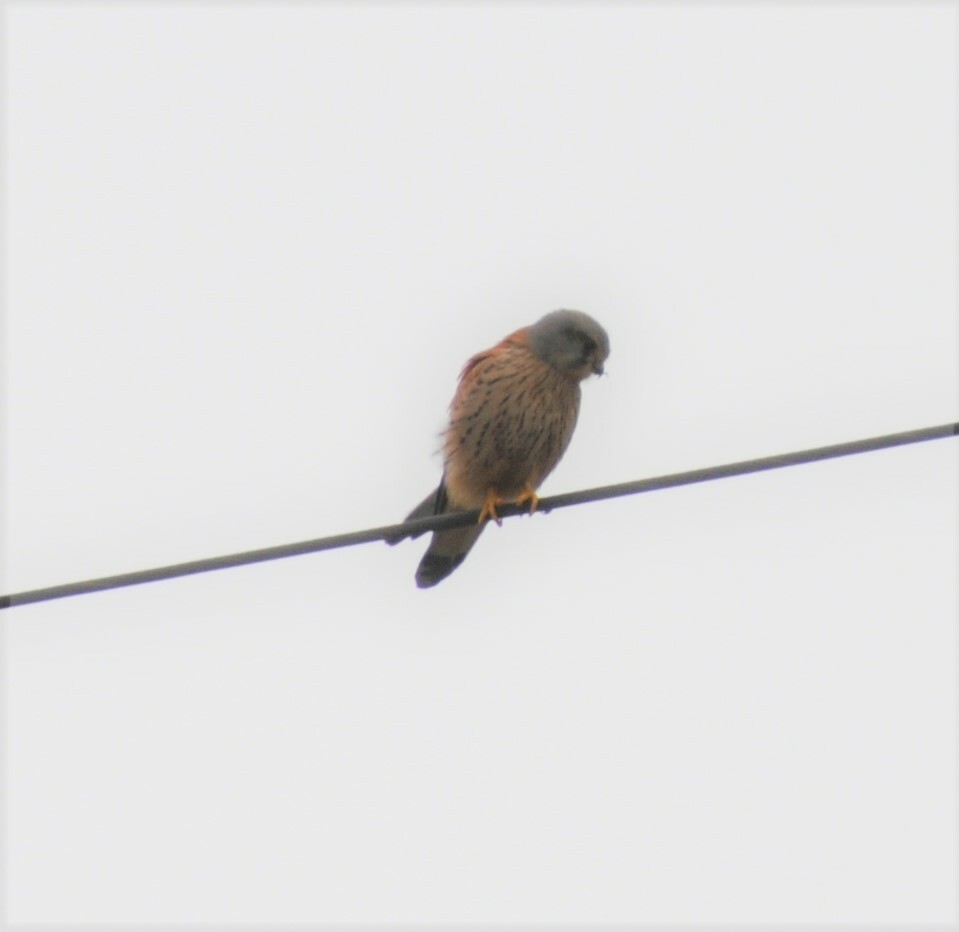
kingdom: Animalia
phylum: Chordata
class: Aves
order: Falconiformes
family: Falconidae
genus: Falco
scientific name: Falco tinnunculus
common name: Common kestrel
